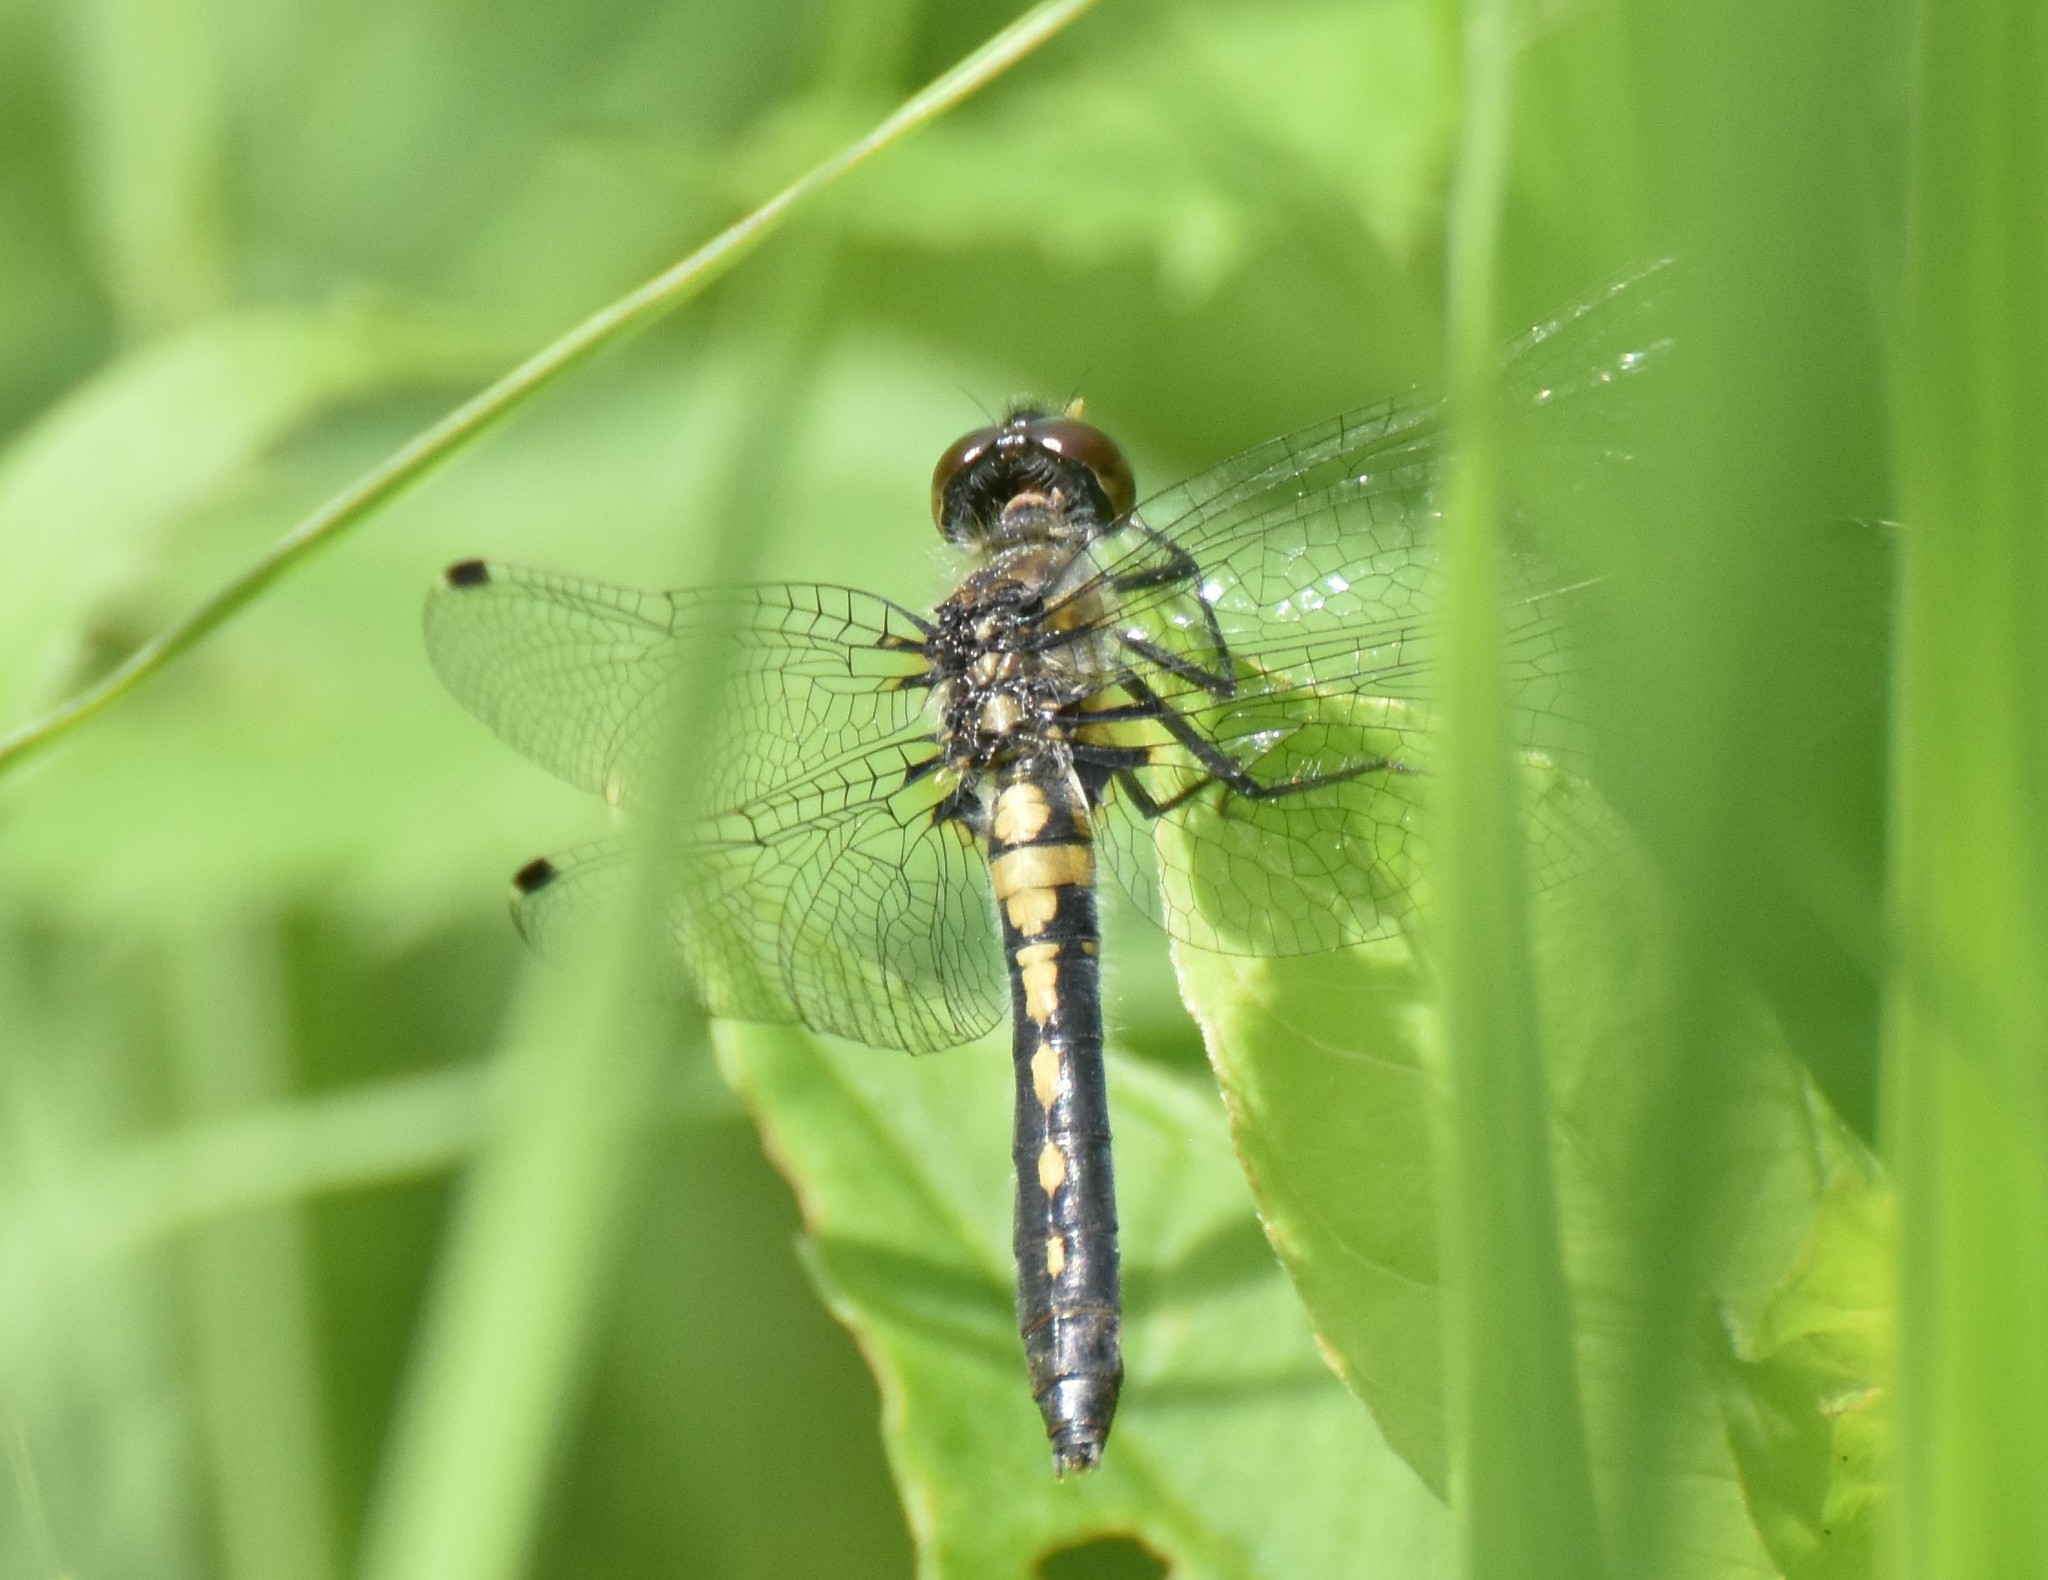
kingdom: Animalia
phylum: Arthropoda
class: Insecta
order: Odonata
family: Libellulidae
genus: Leucorrhinia
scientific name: Leucorrhinia frigida
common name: Frosted whiteface
